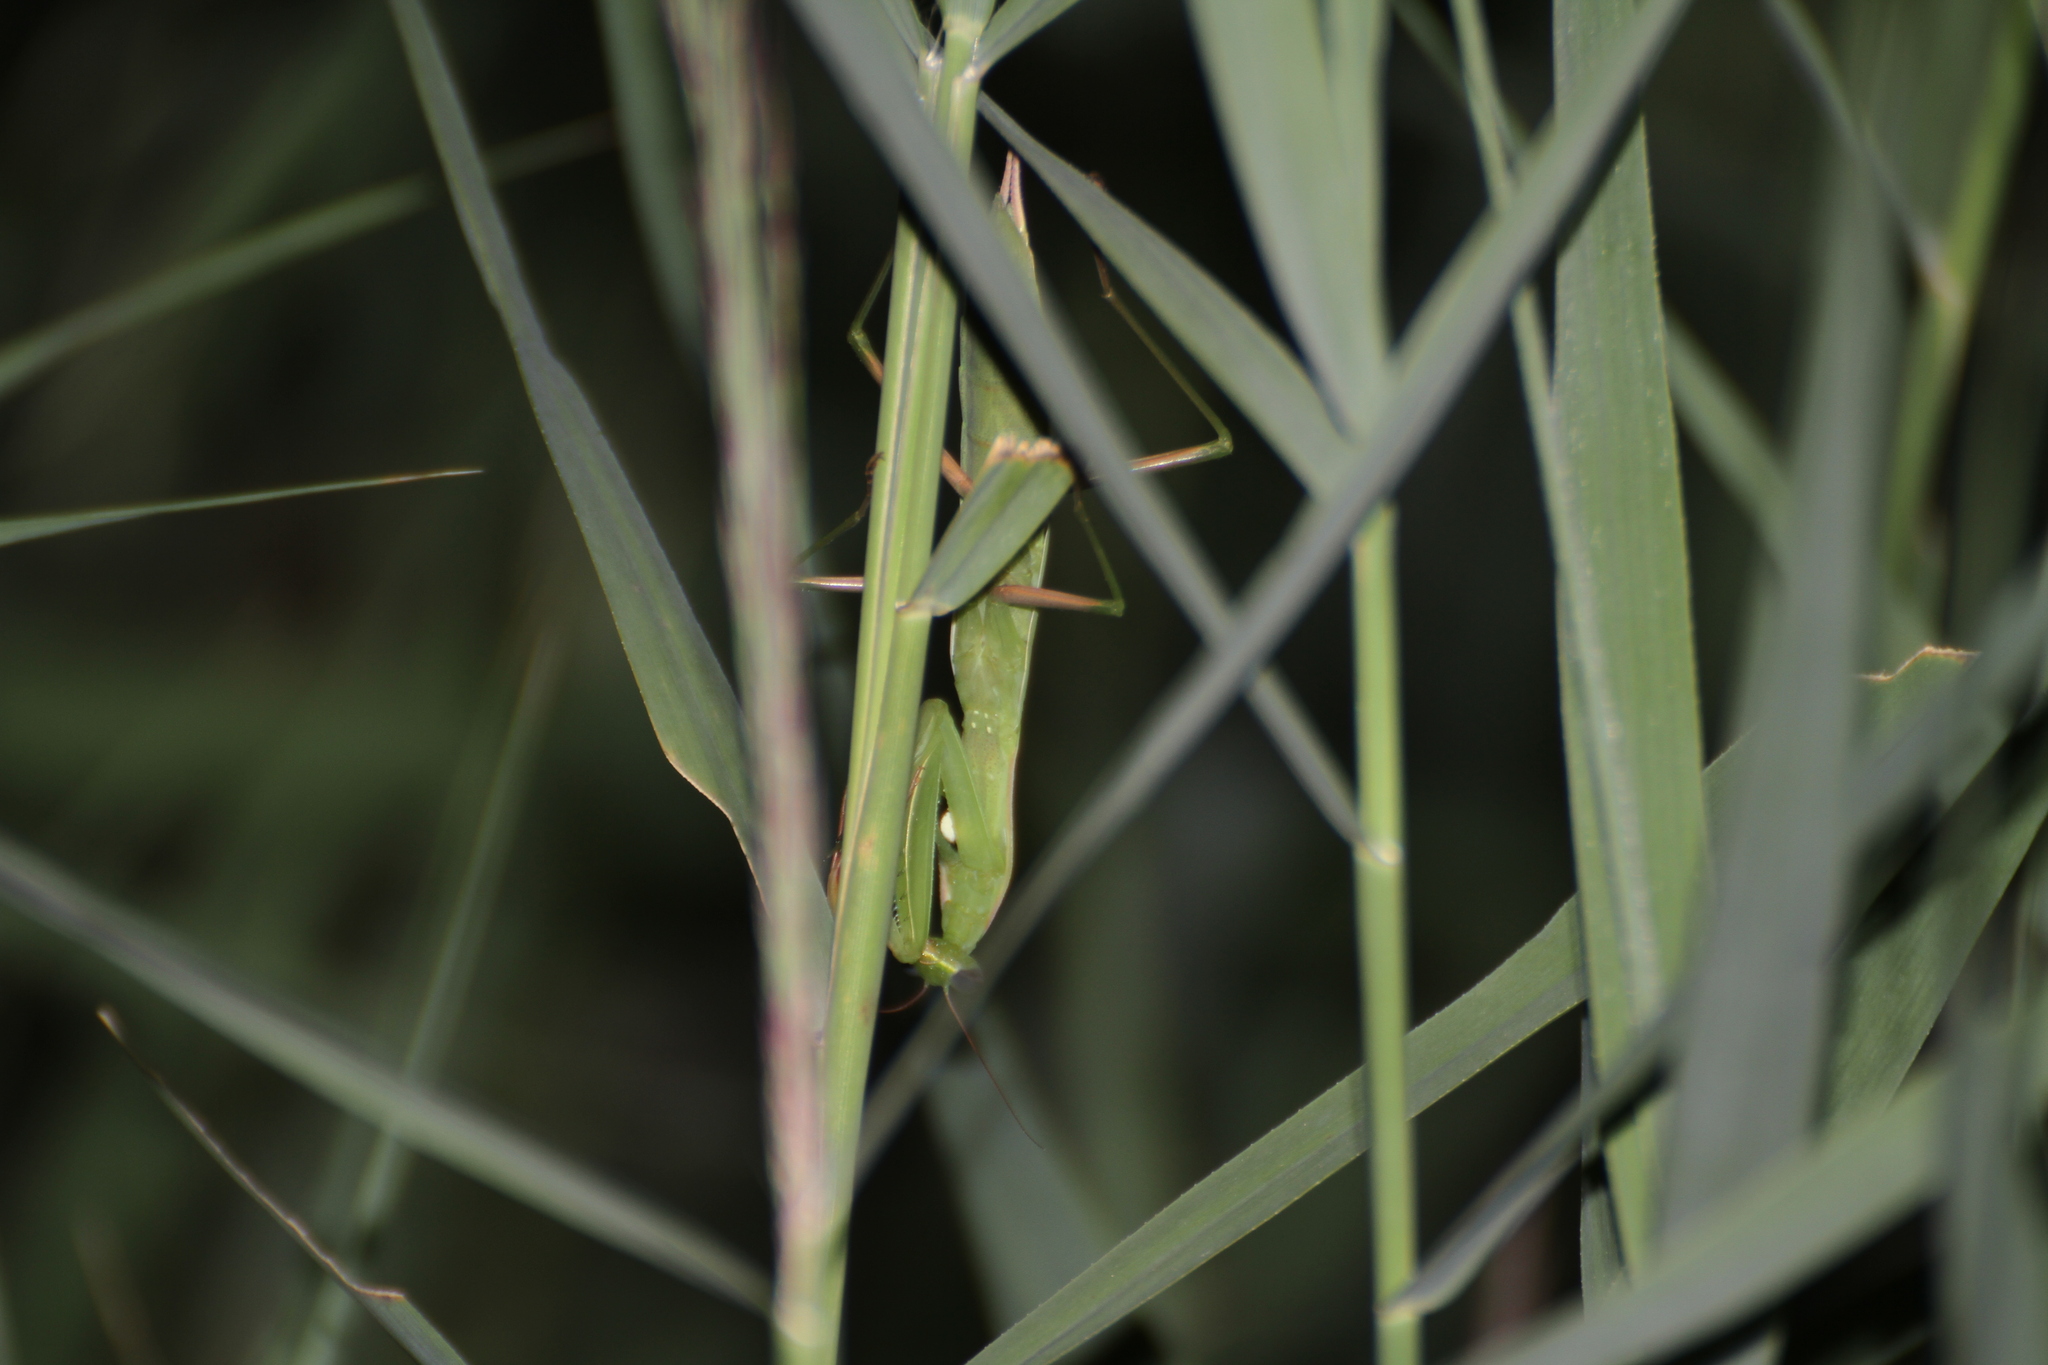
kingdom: Animalia
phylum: Arthropoda
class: Insecta
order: Mantodea
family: Mantidae
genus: Mantis
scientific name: Mantis religiosa
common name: Praying mantis
